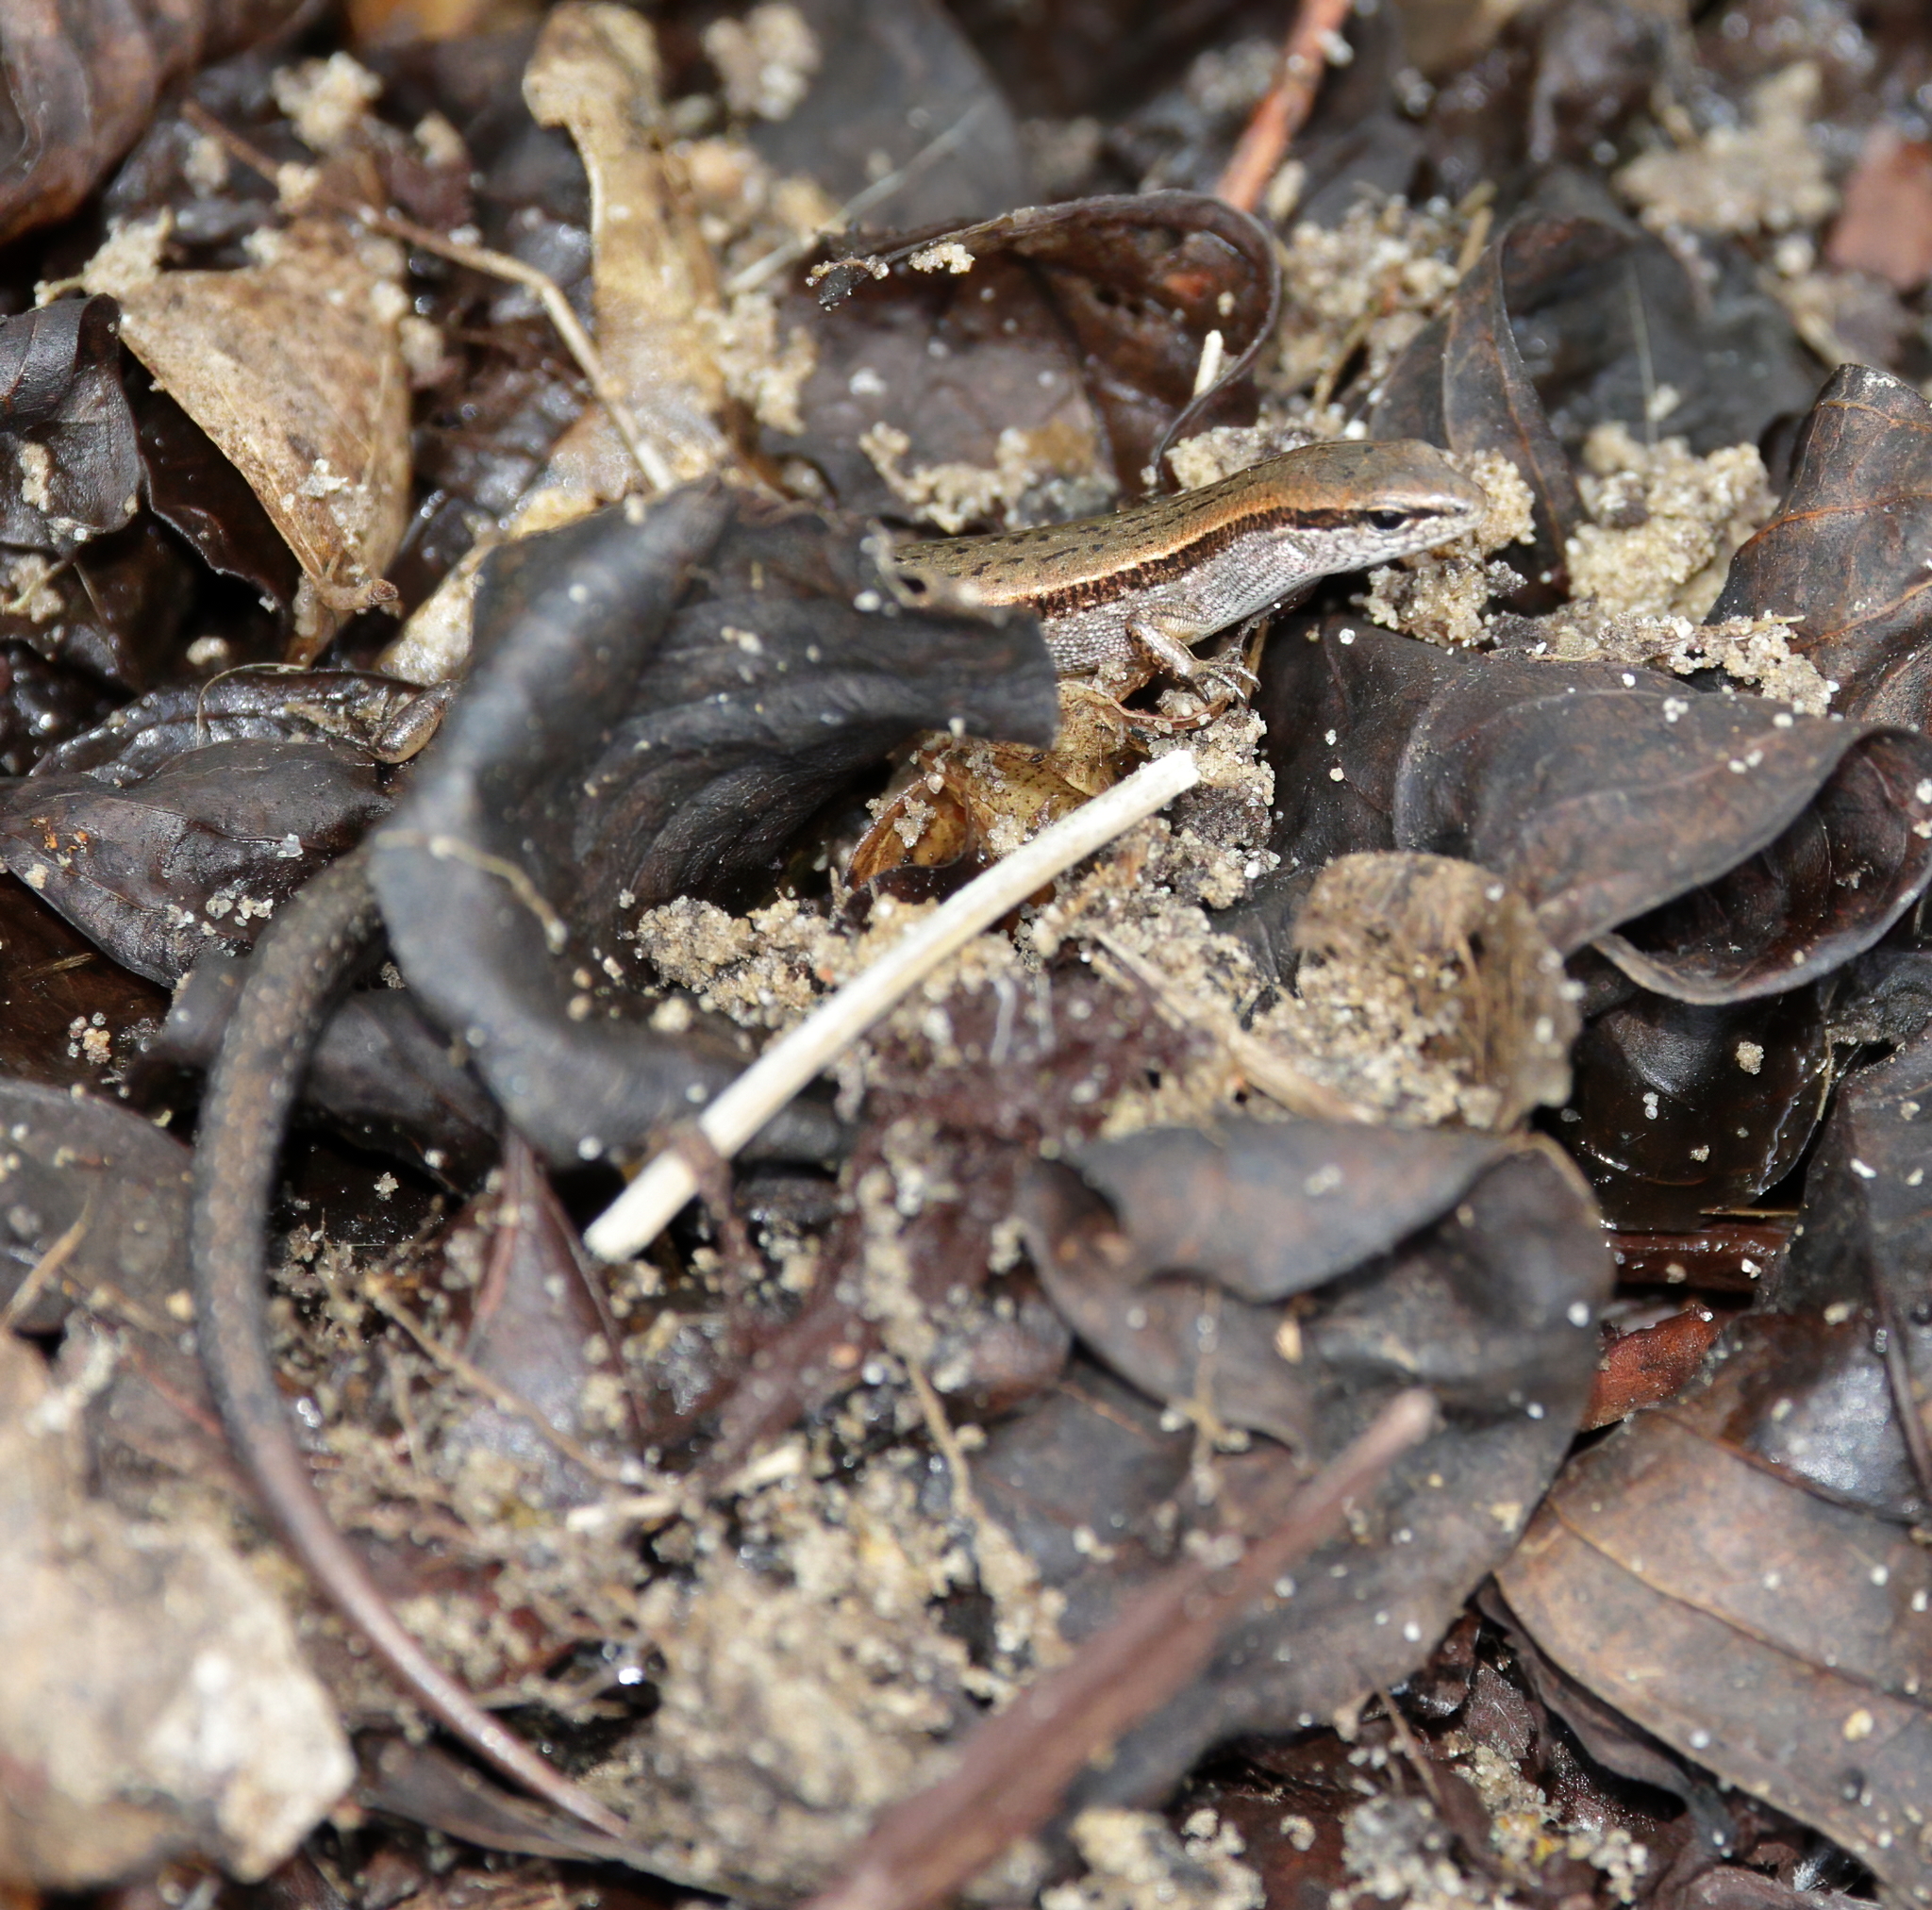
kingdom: Animalia
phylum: Chordata
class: Squamata
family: Scincidae
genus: Scincella
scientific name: Scincella lateralis
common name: Ground skink
